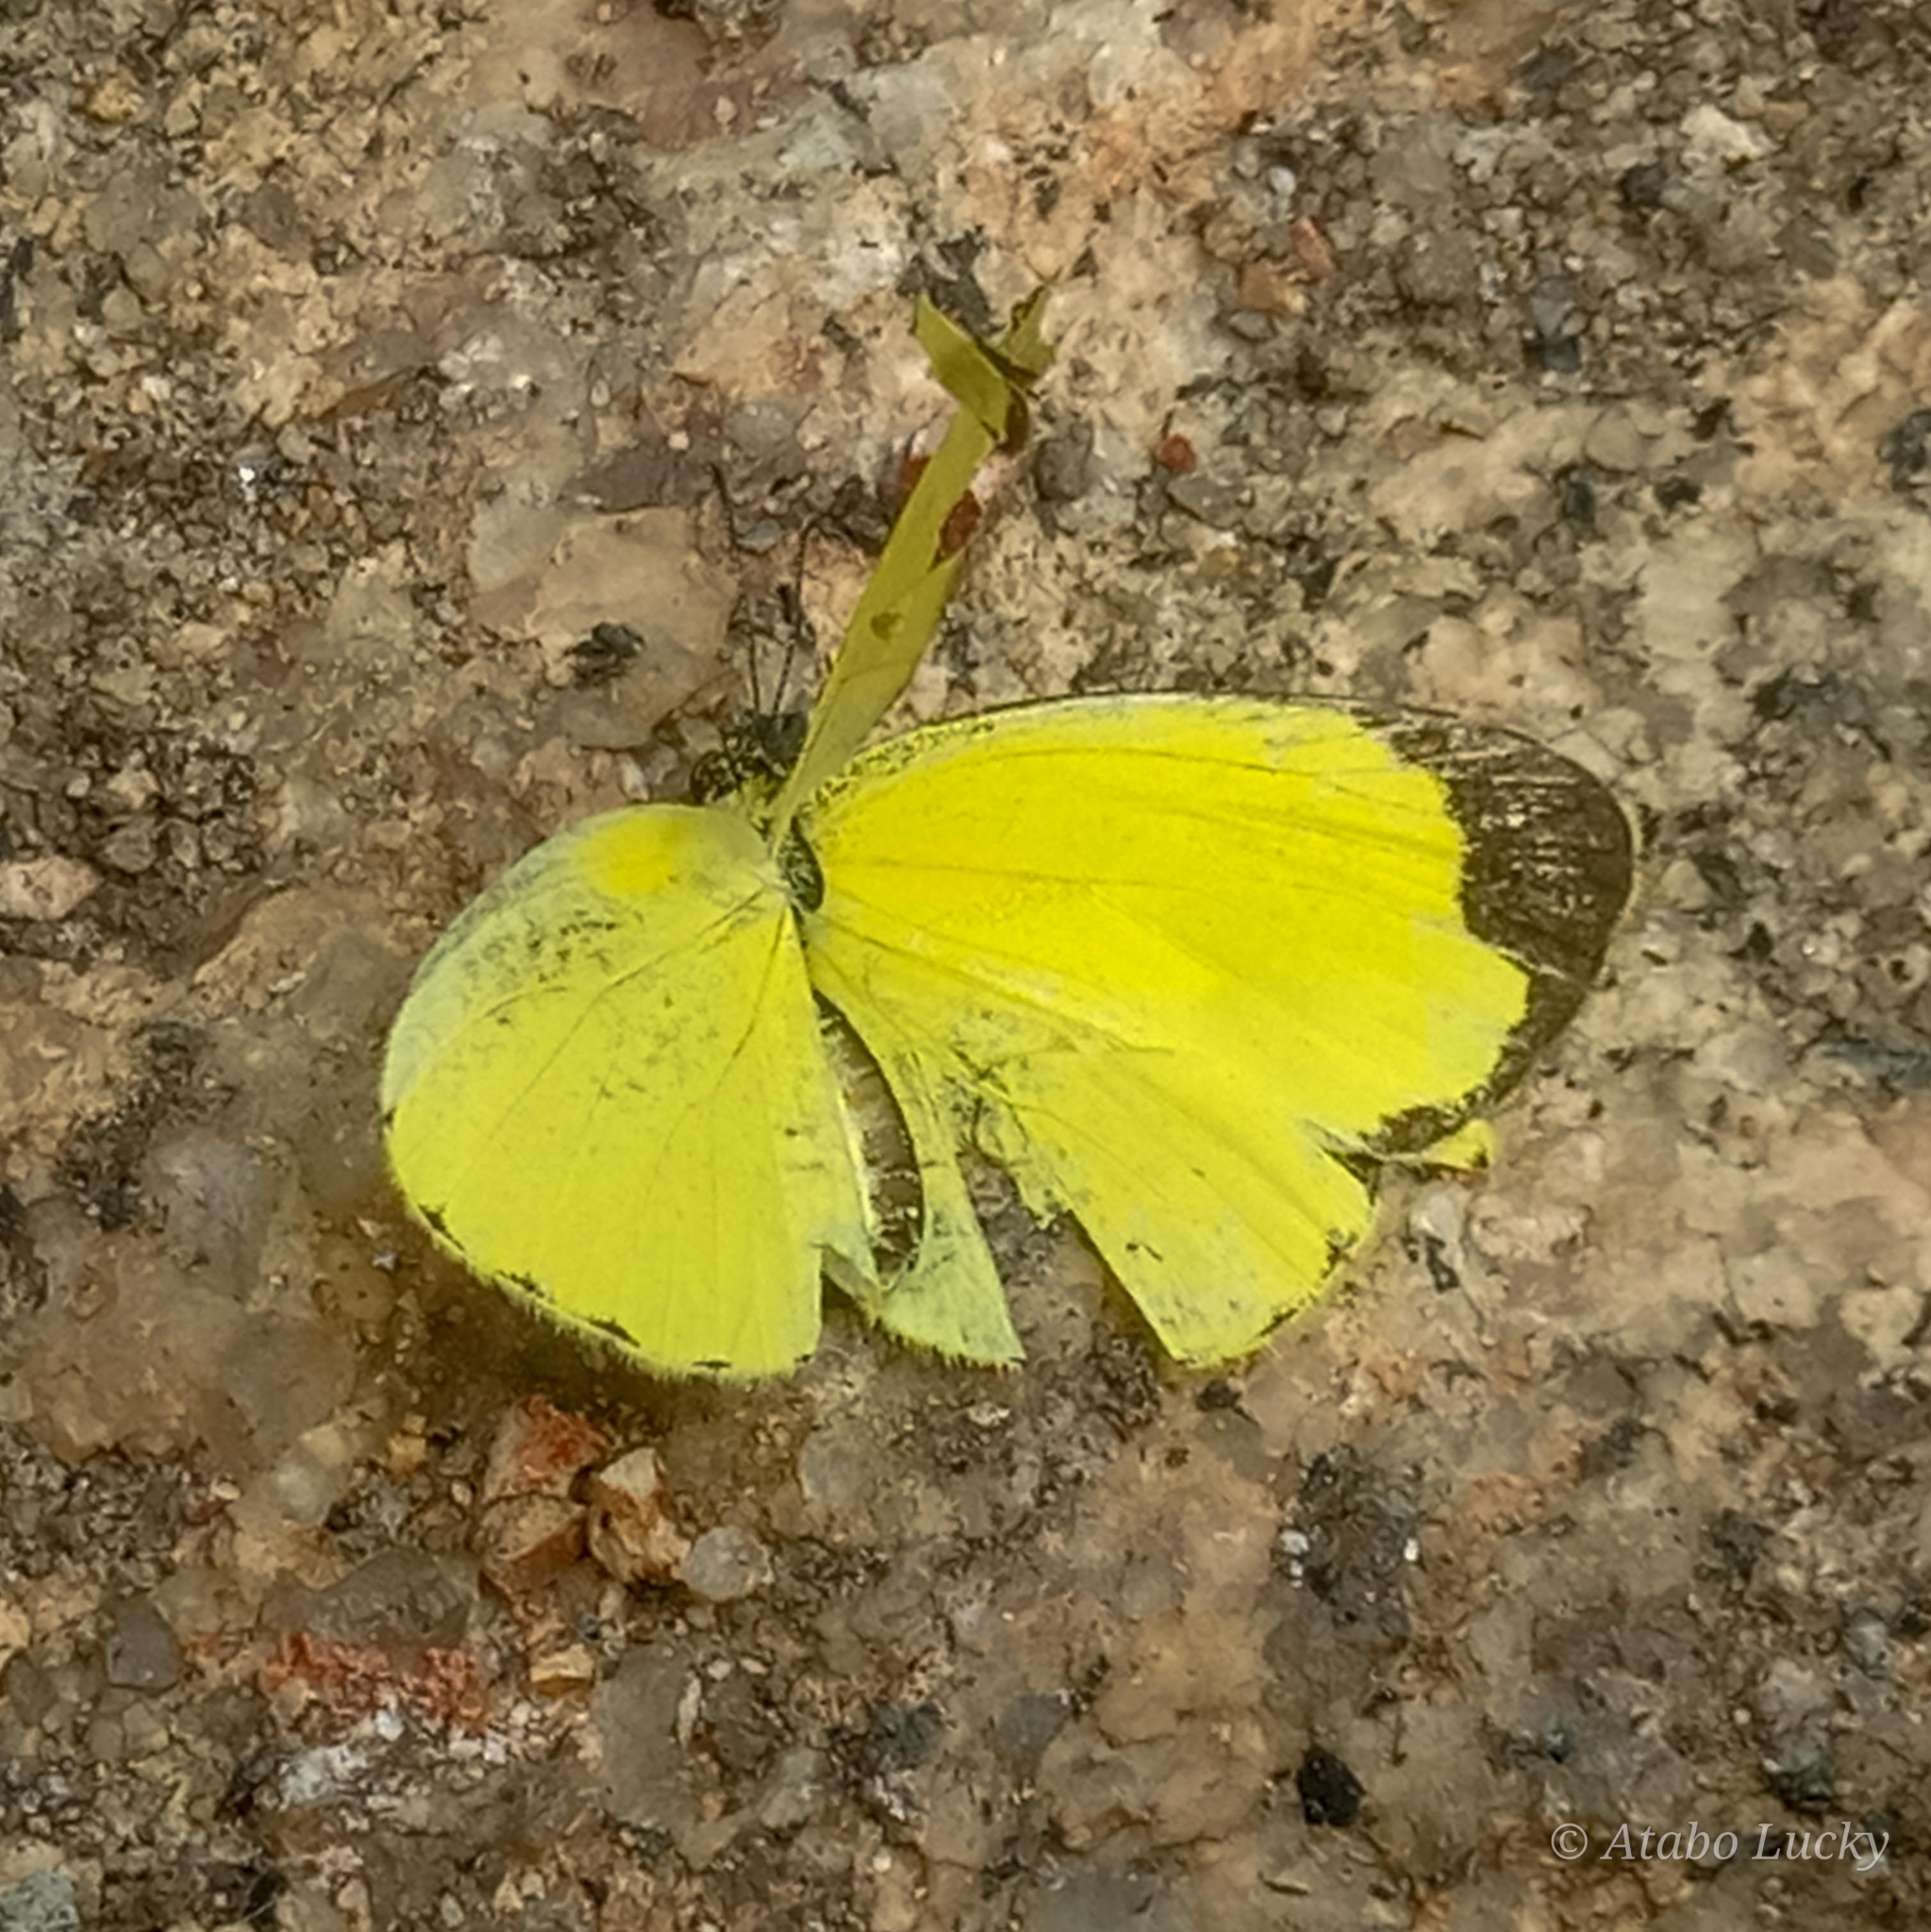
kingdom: Animalia
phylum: Arthropoda
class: Insecta
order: Lepidoptera
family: Pieridae
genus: Eurema
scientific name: Eurema floricola
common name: Malagasy grass yellow
